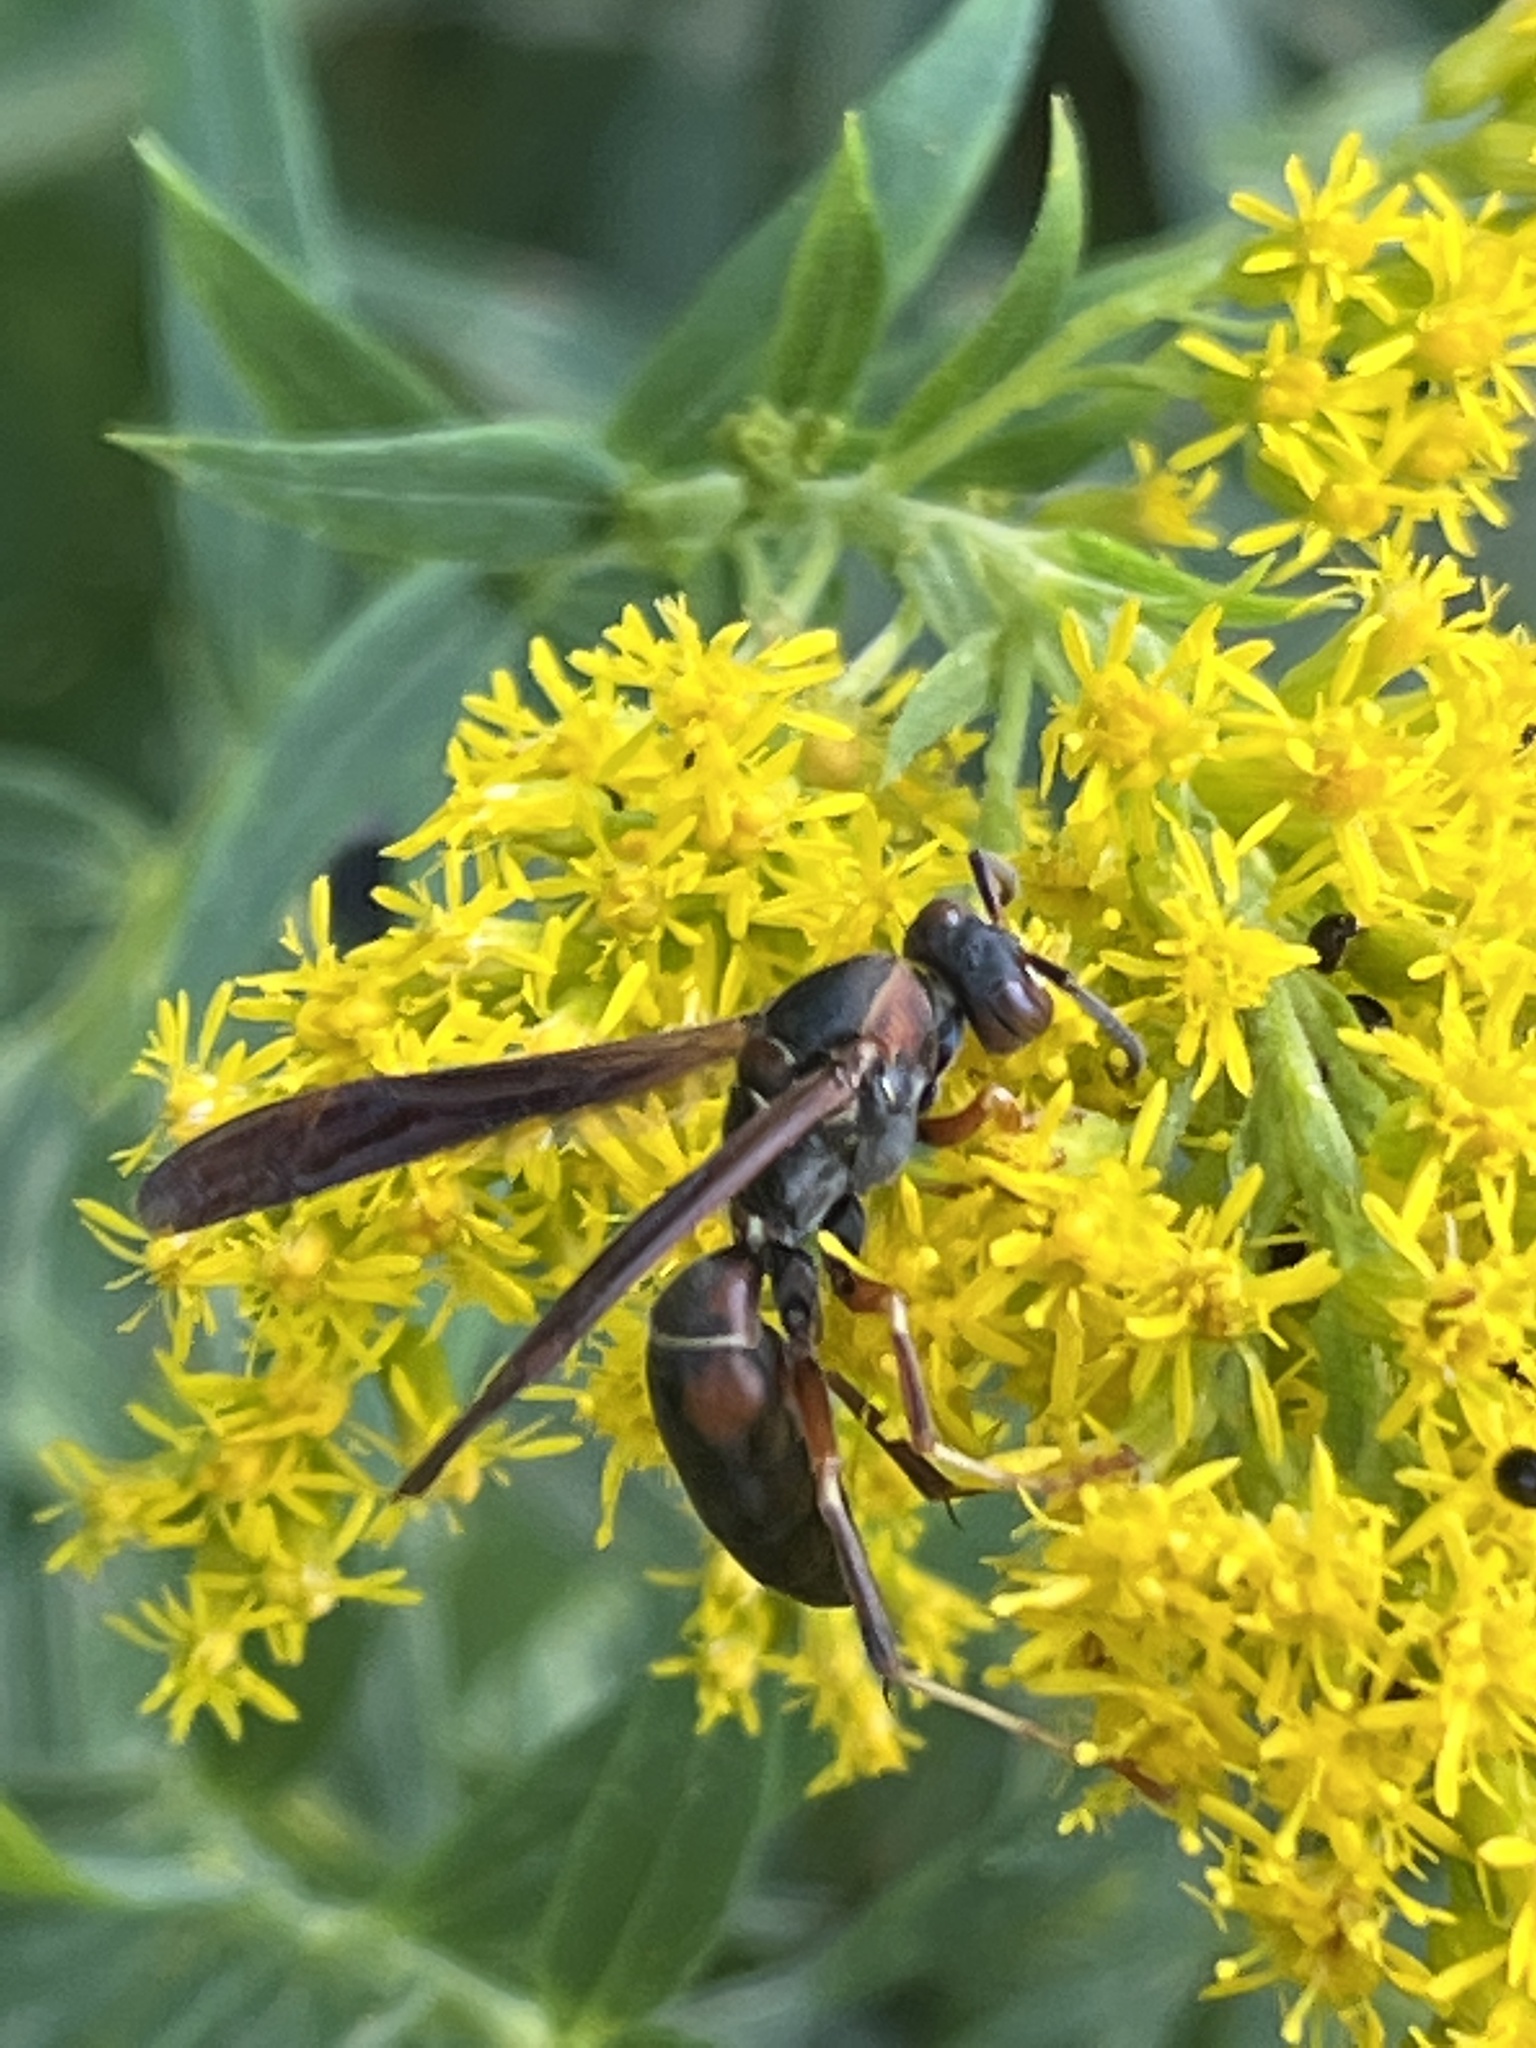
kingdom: Animalia
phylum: Arthropoda
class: Insecta
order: Hymenoptera
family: Eumenidae
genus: Polistes
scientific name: Polistes fuscatus
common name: Dark paper wasp
